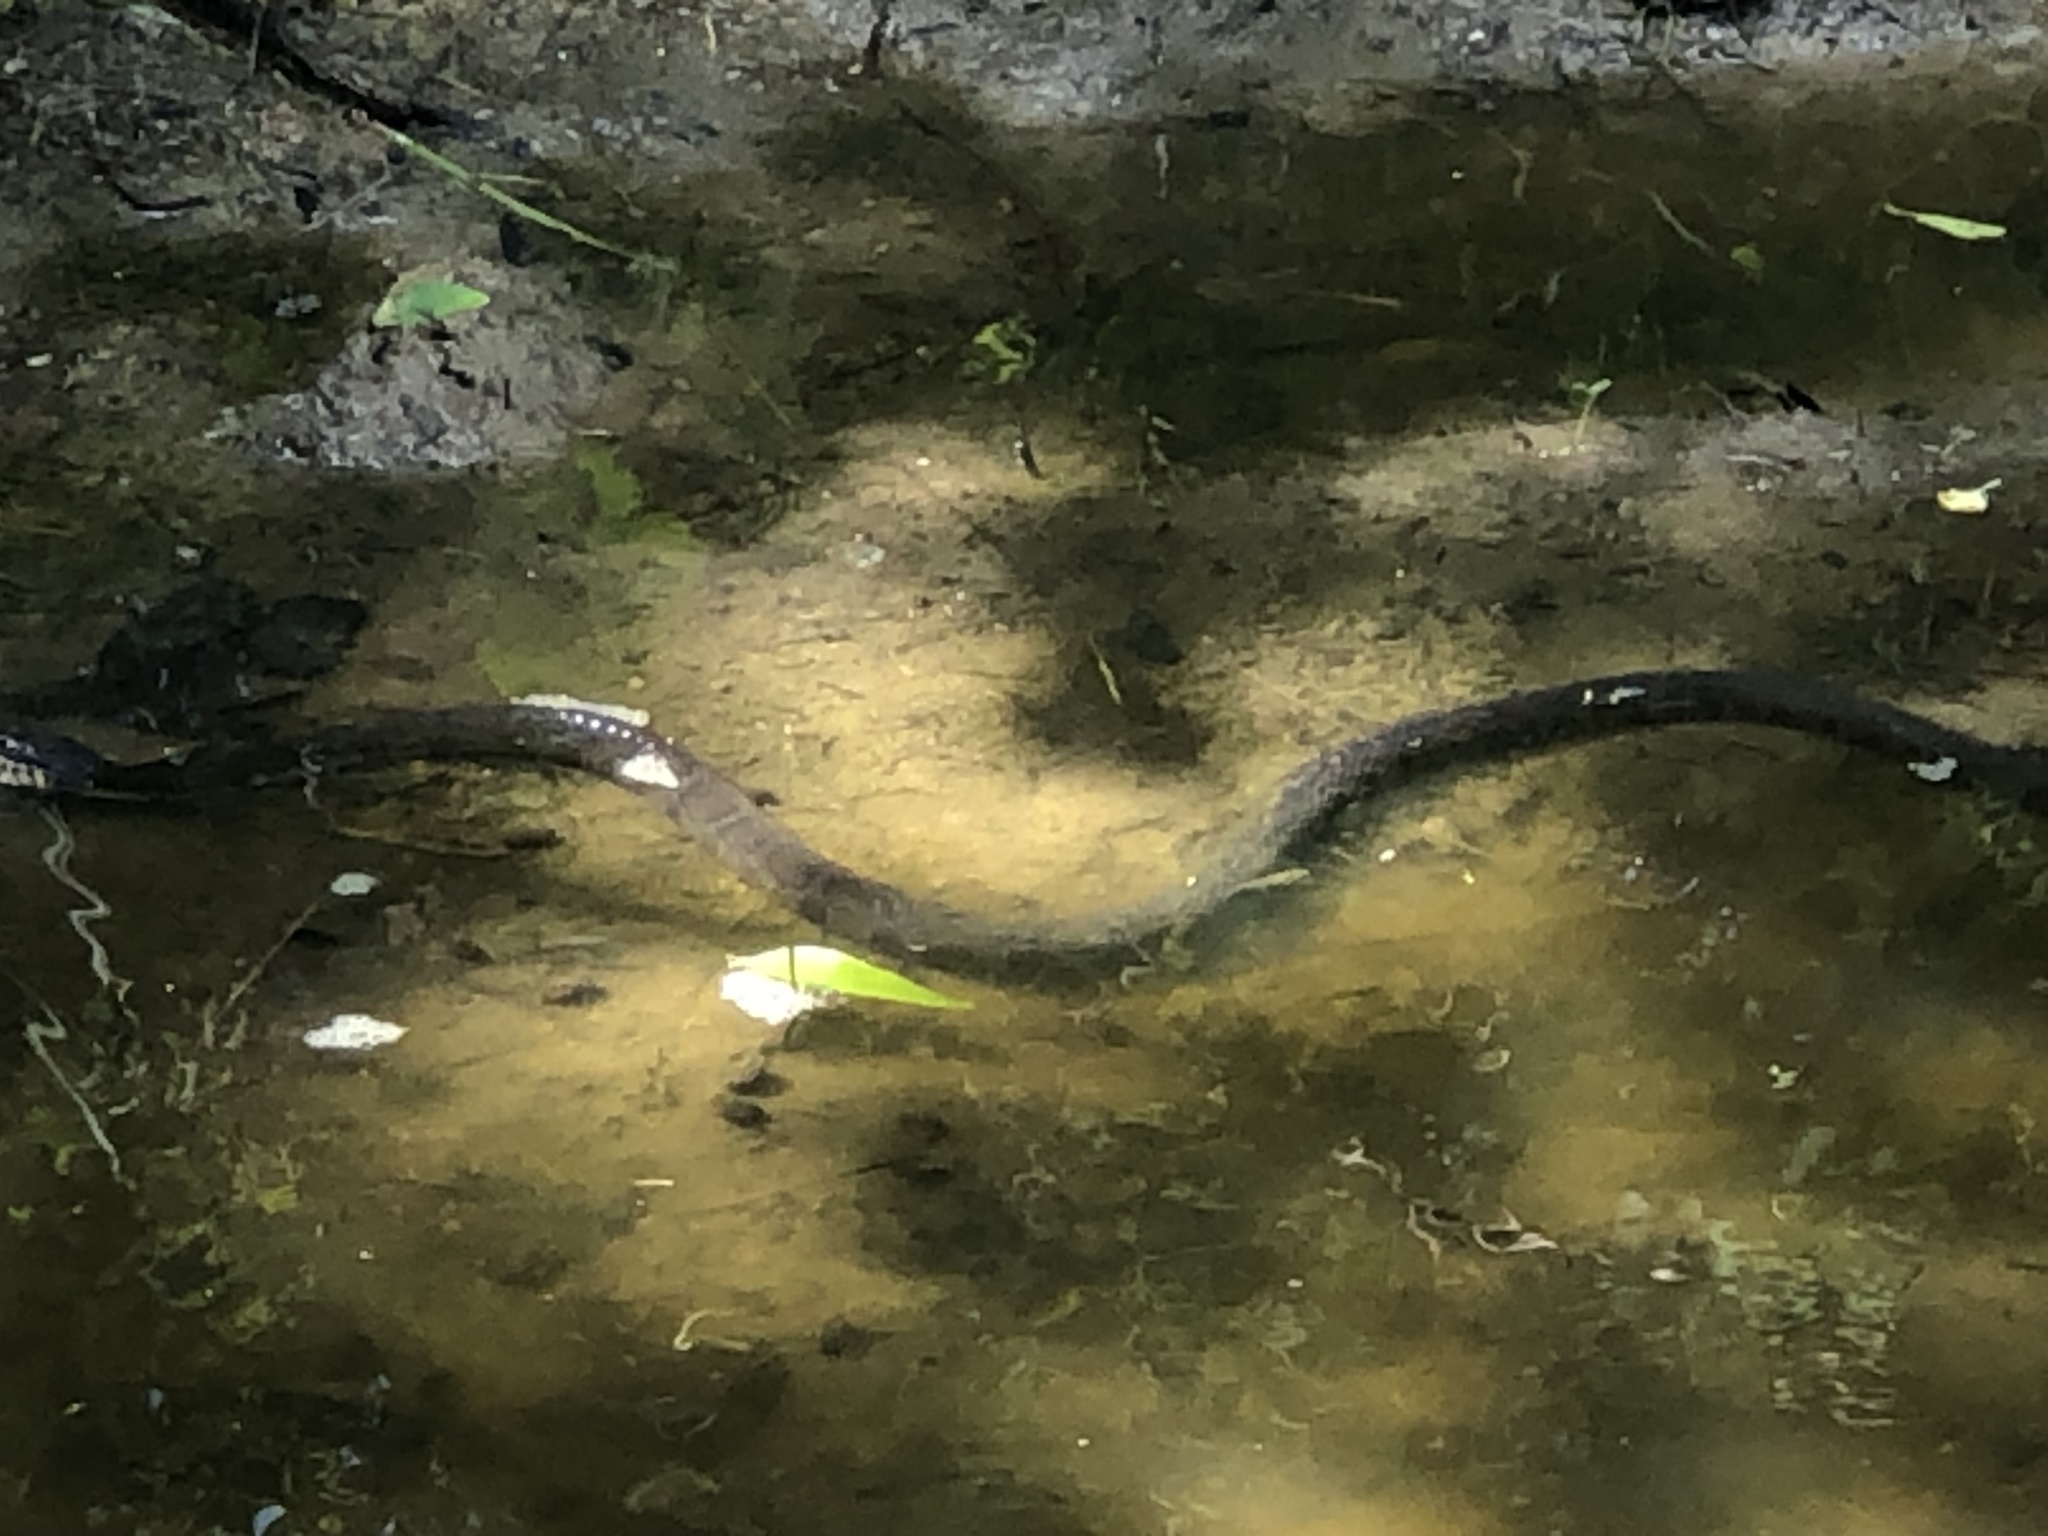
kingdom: Animalia
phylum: Chordata
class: Squamata
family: Colubridae
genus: Nerodia
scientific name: Nerodia erythrogaster
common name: Plainbelly water snake
